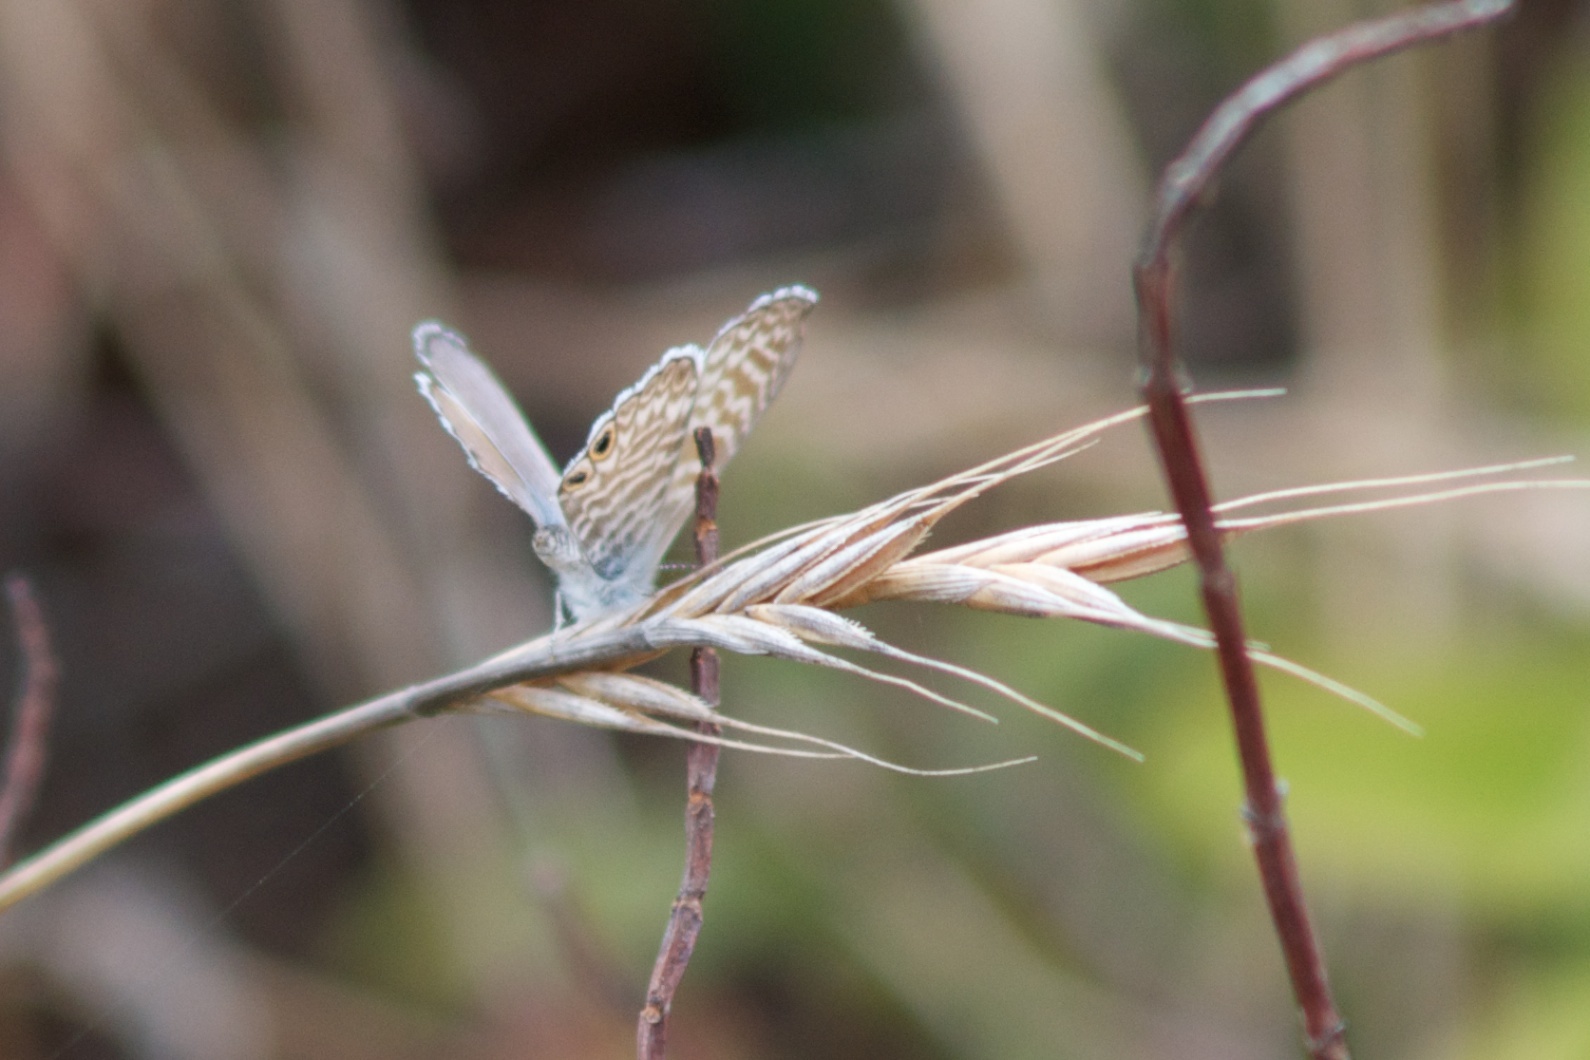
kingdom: Animalia
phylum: Arthropoda
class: Insecta
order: Lepidoptera
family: Lycaenidae
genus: Leptotes
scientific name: Leptotes marina
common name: Marine blue
